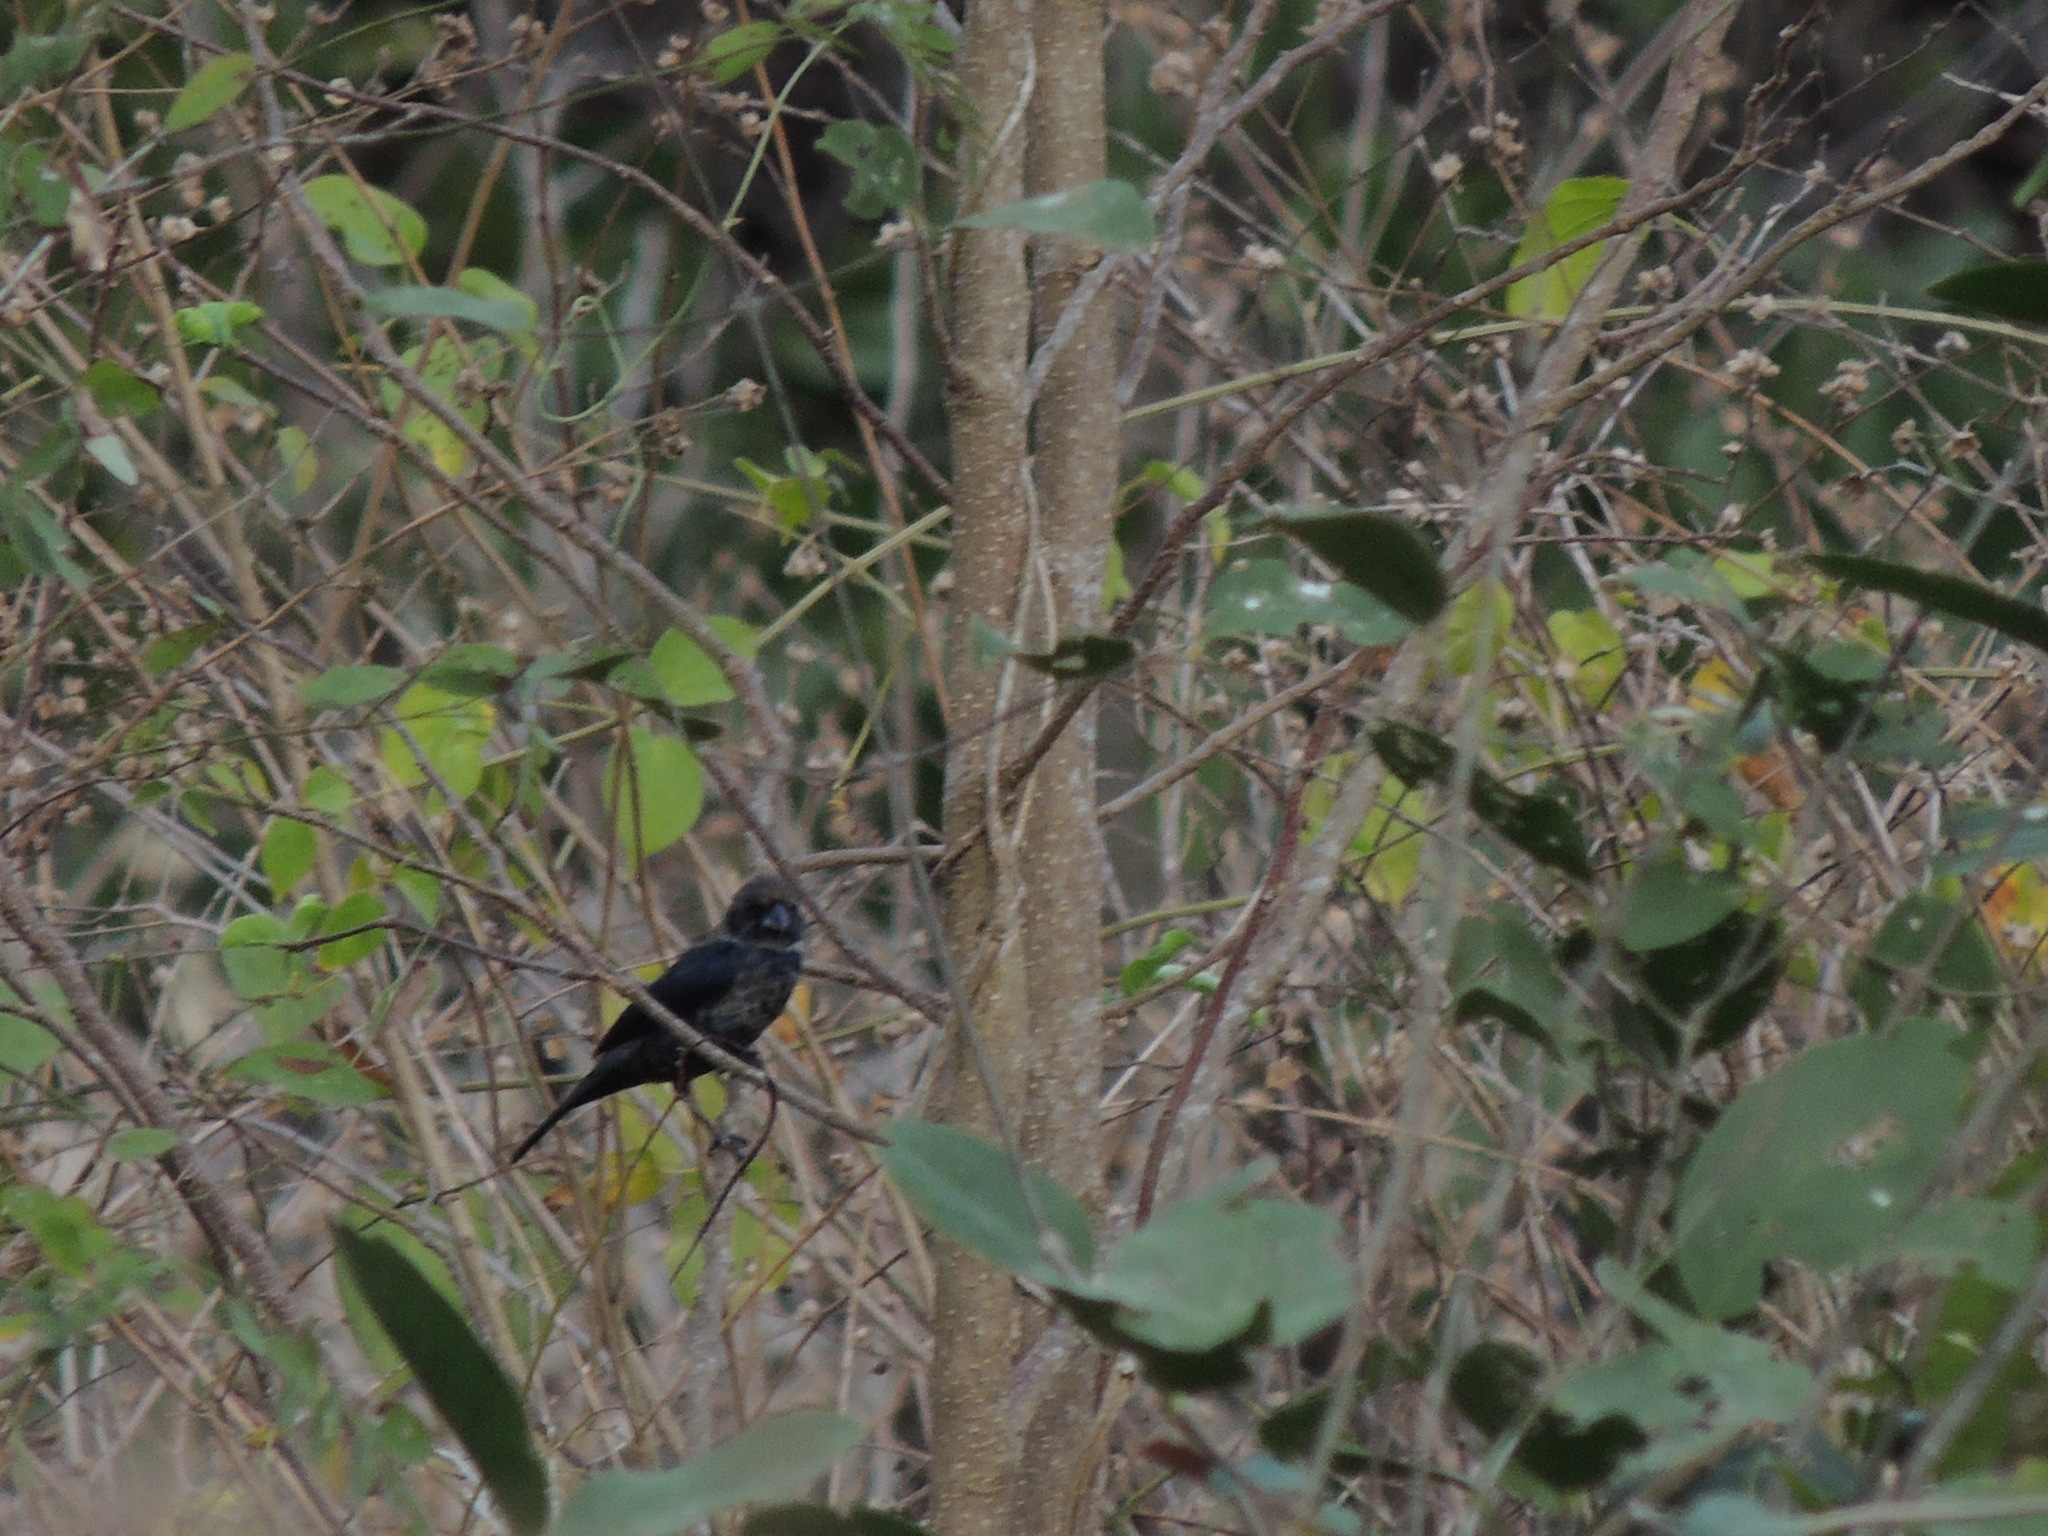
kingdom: Animalia
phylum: Chordata
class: Aves
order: Passeriformes
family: Thraupidae
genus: Volatinia
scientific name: Volatinia jacarina
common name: Blue-black grassquit
